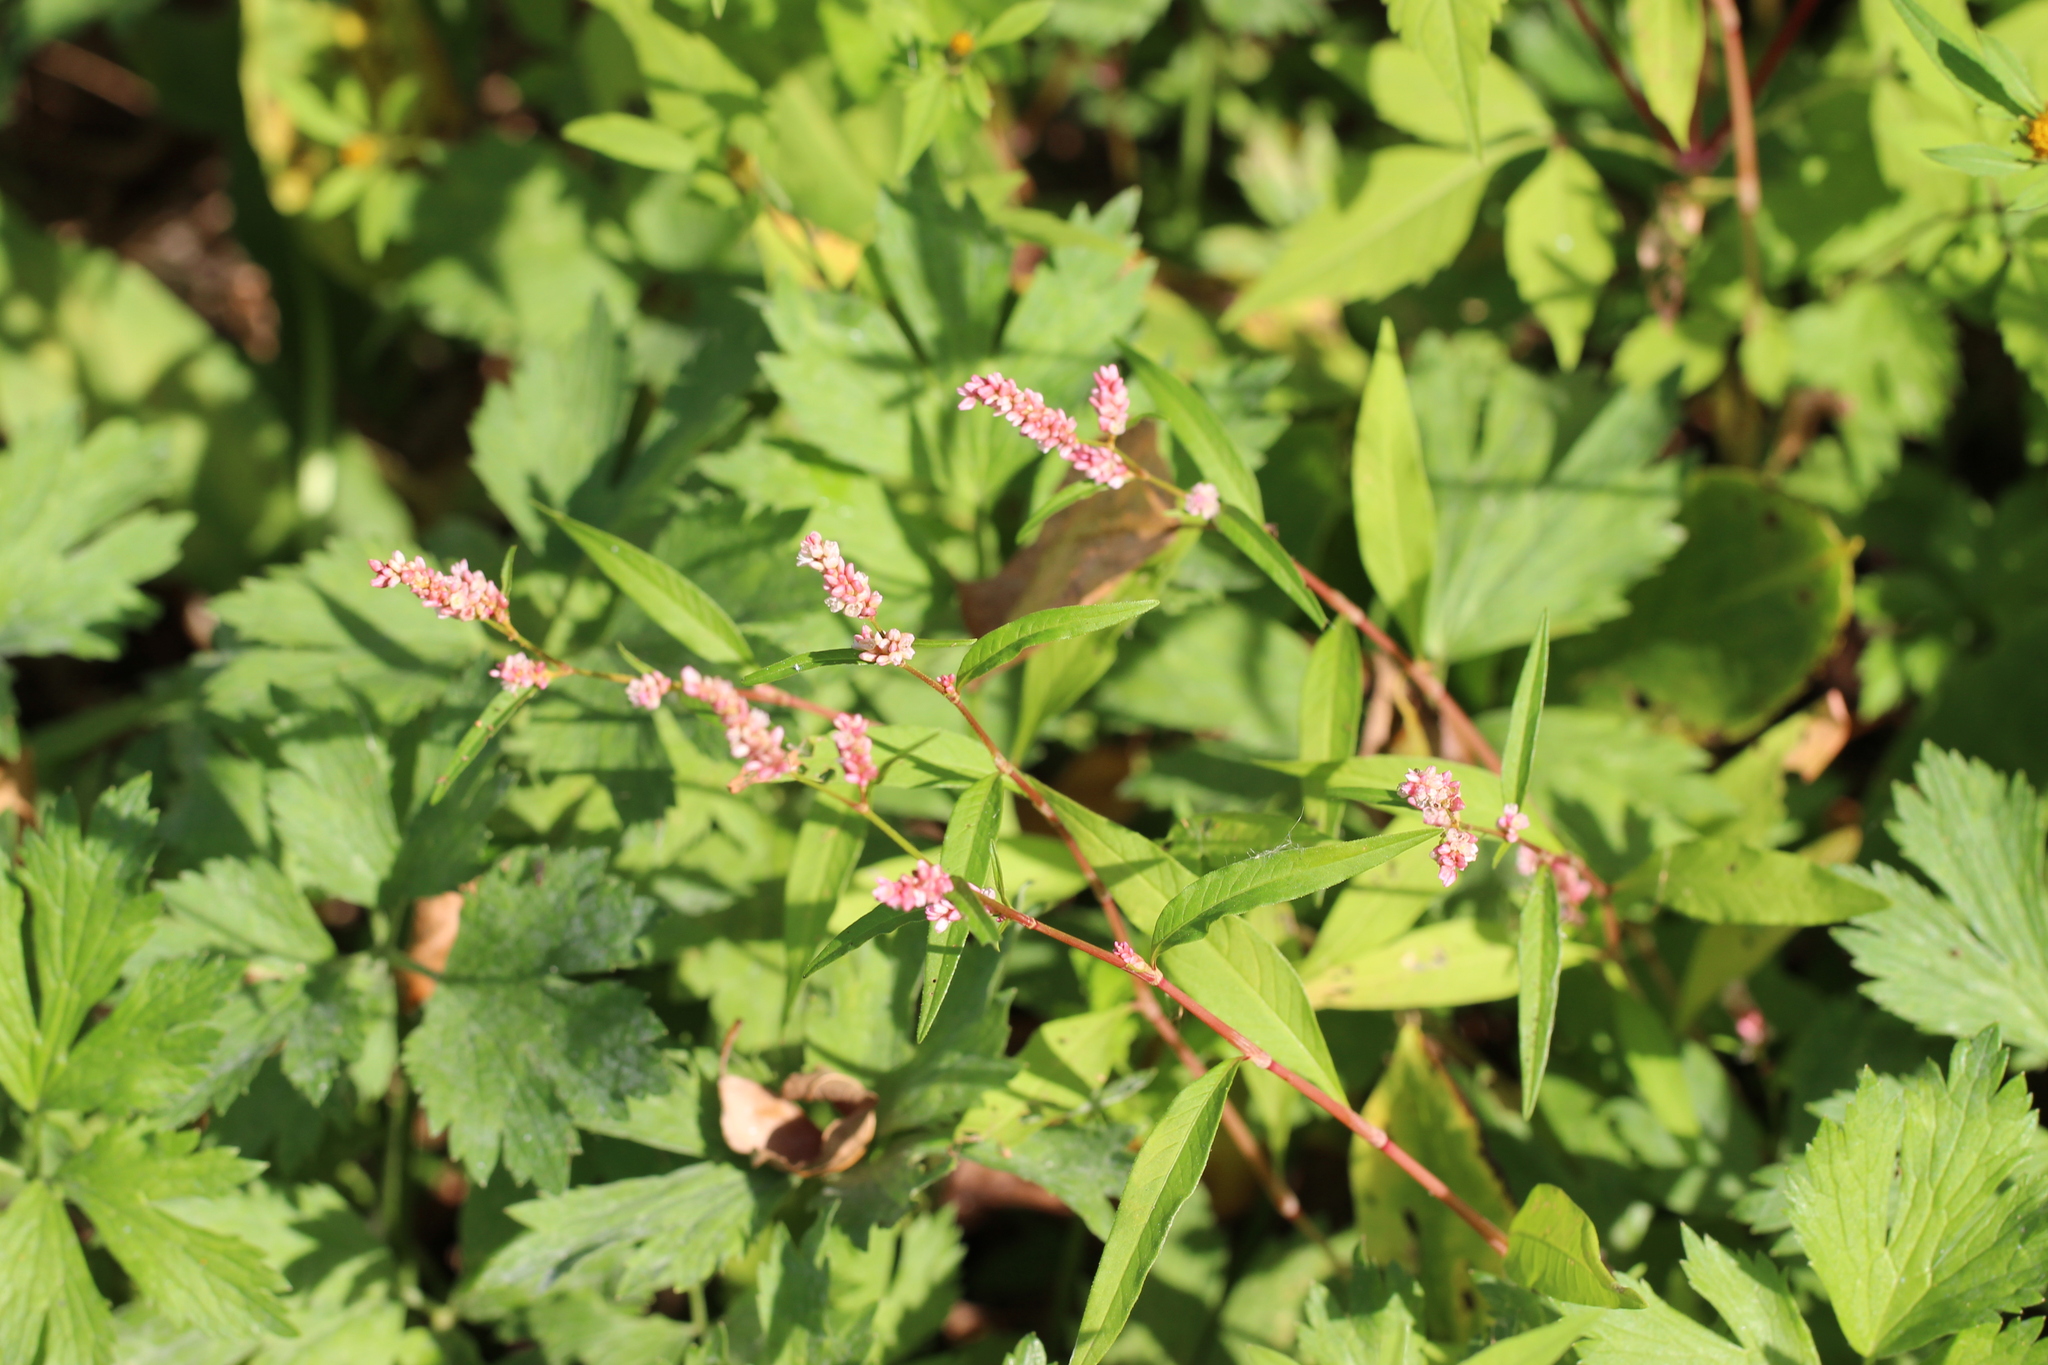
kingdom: Plantae
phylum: Tracheophyta
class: Magnoliopsida
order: Caryophyllales
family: Polygonaceae
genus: Persicaria
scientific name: Persicaria lapathifolia
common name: Curlytop knotweed
